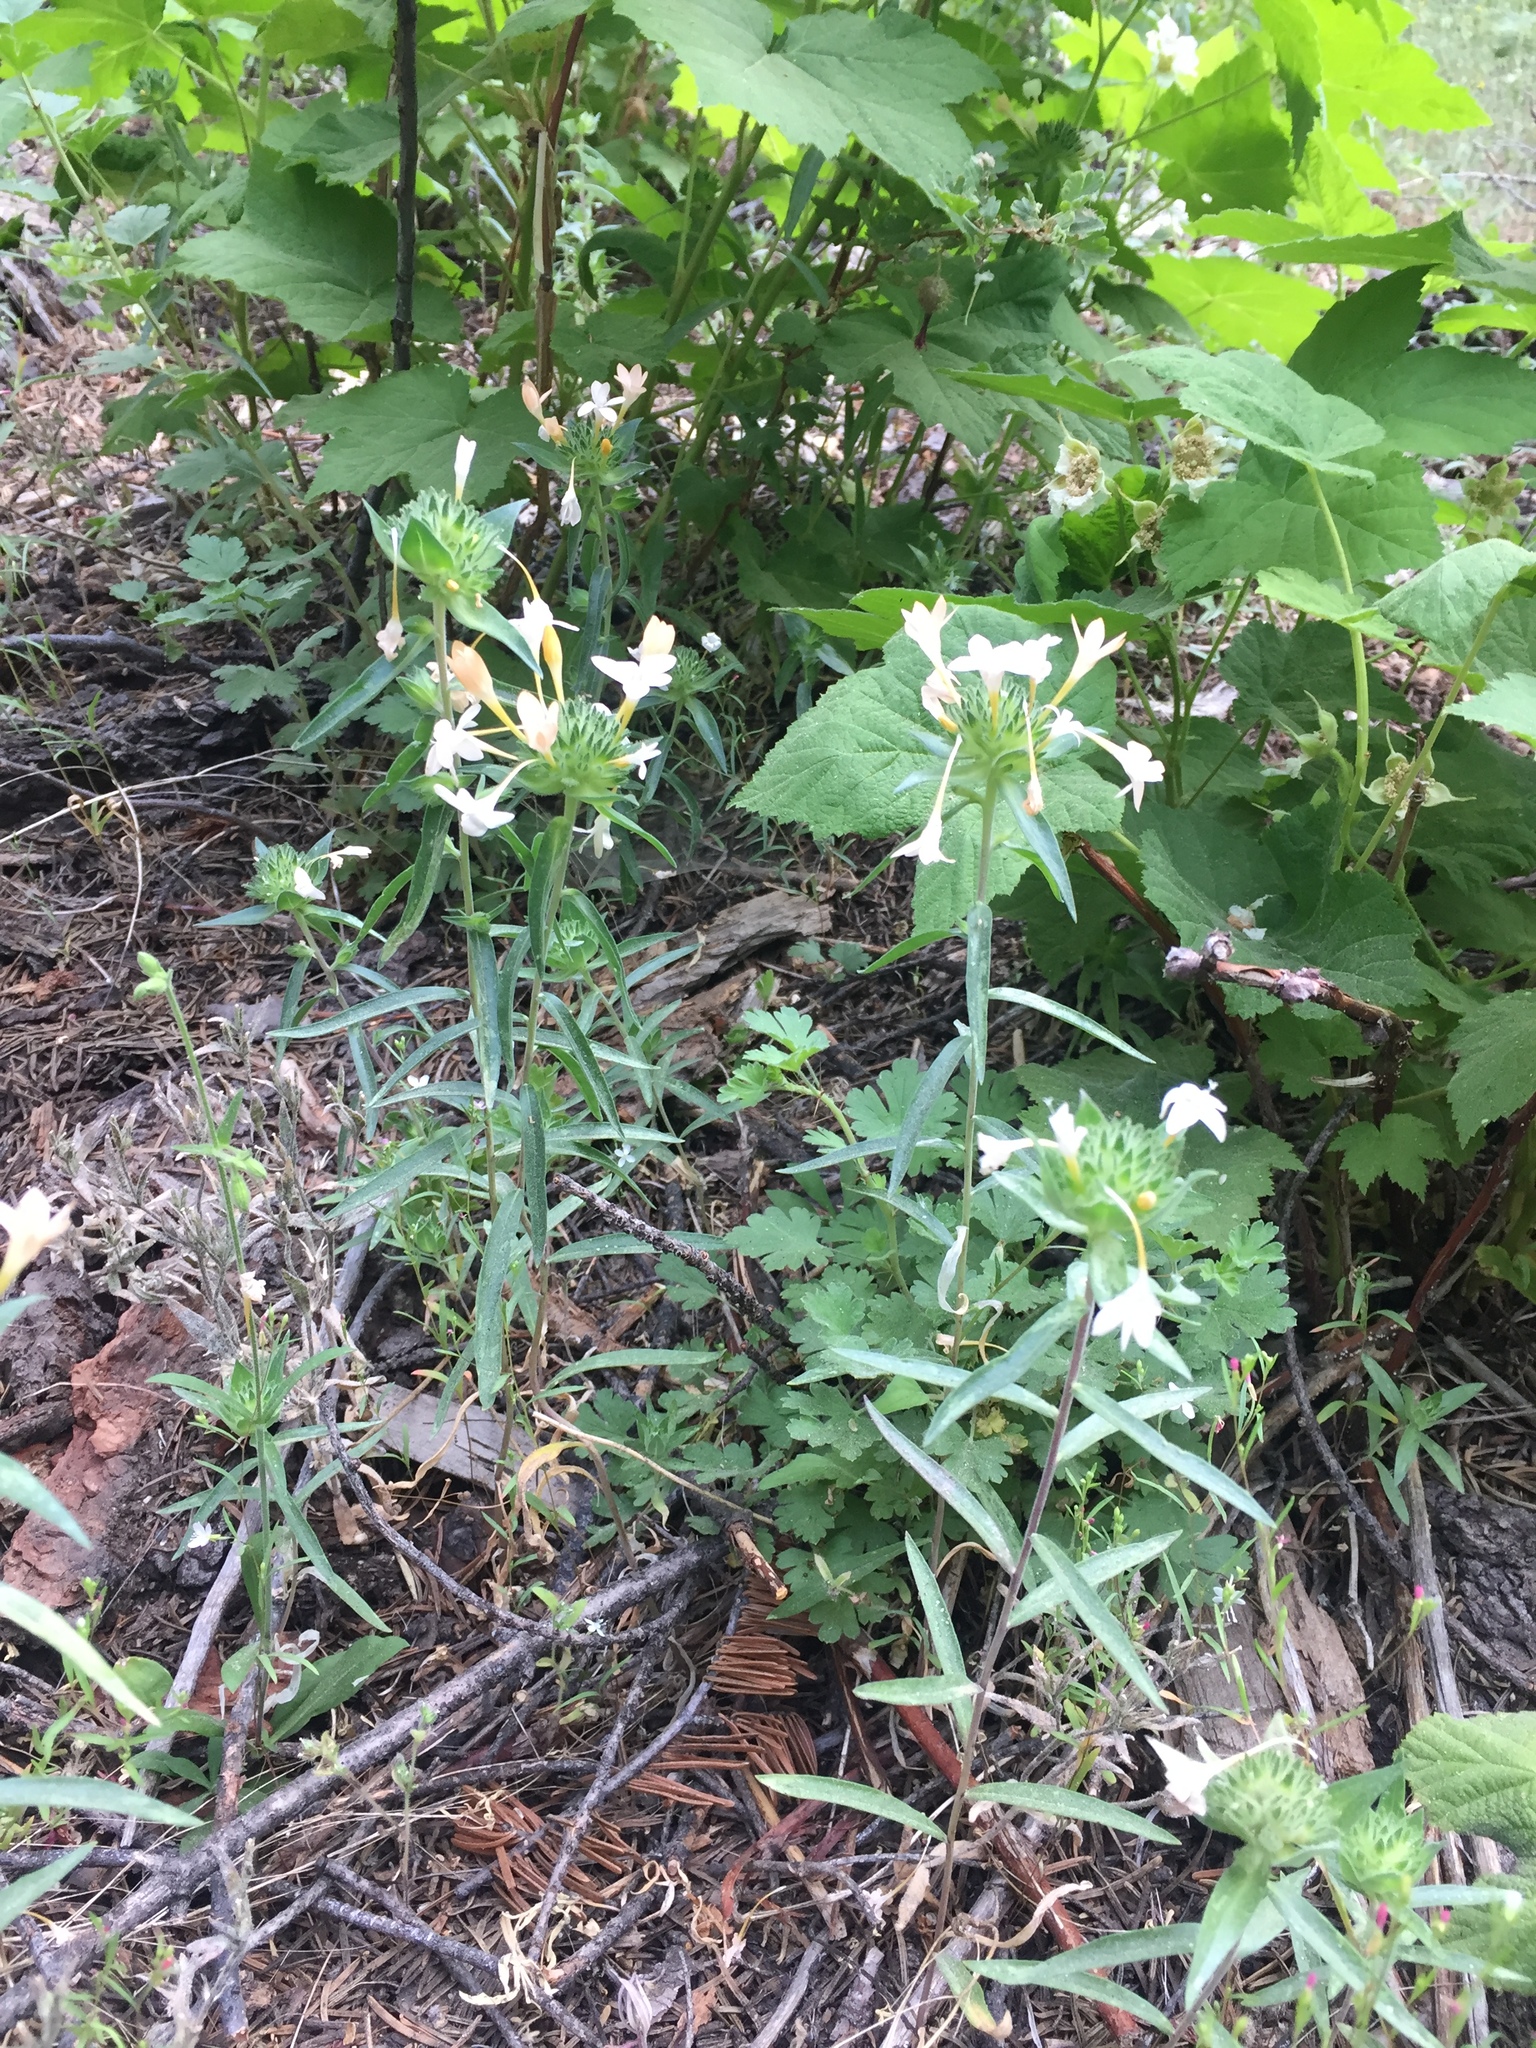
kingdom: Plantae
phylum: Tracheophyta
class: Magnoliopsida
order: Ericales
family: Polemoniaceae
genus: Collomia
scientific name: Collomia grandiflora
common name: California strawflower
